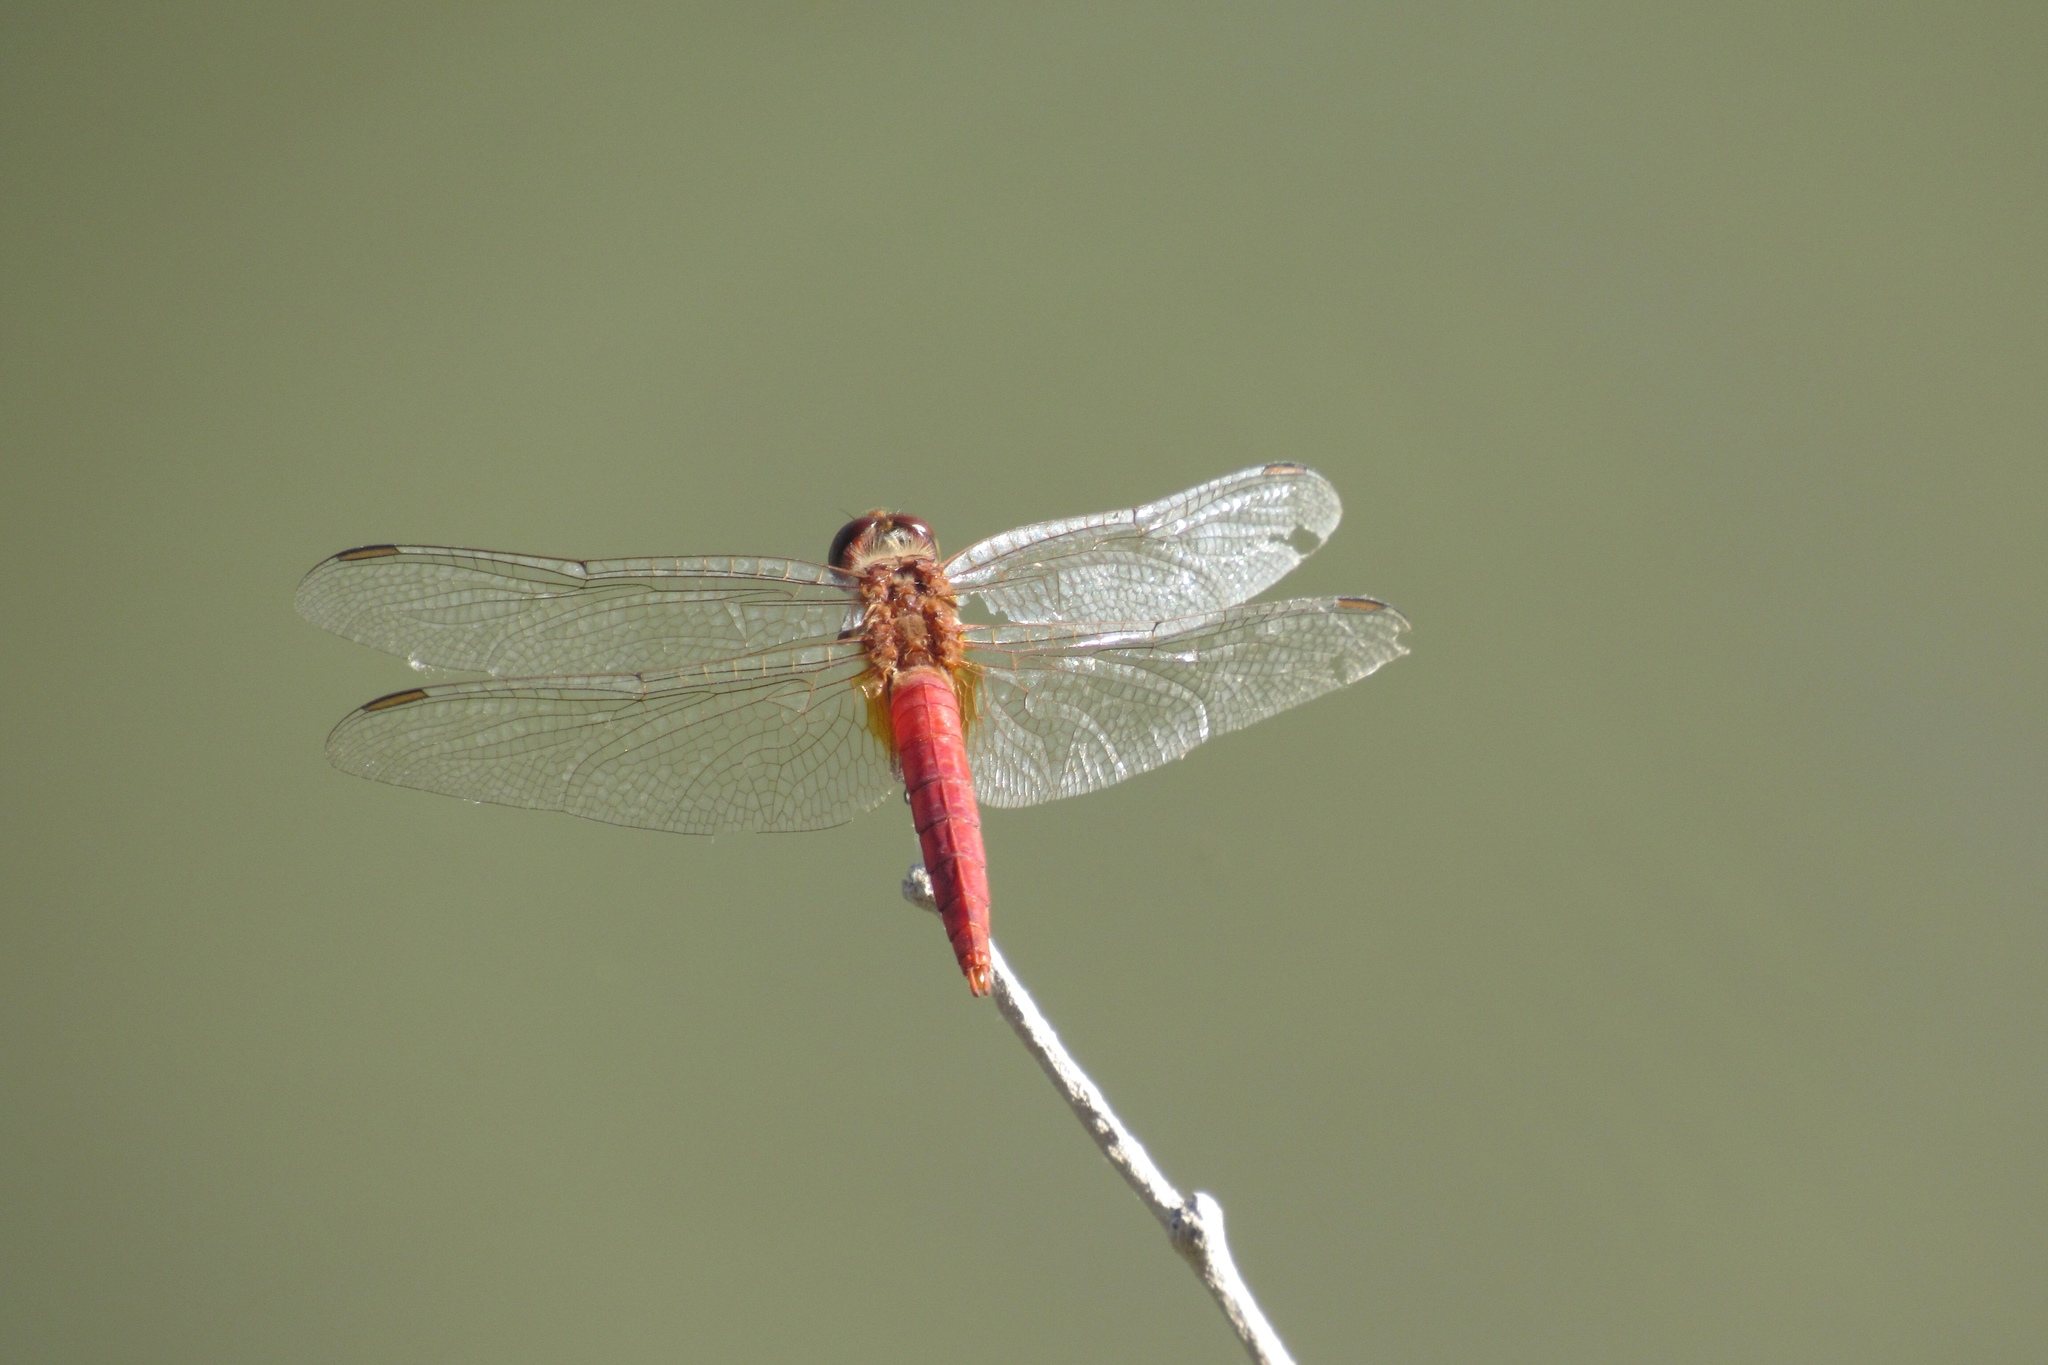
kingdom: Animalia
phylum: Arthropoda
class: Insecta
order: Odonata
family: Libellulidae
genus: Brachymesia
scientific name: Brachymesia furcata
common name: Red-taled pennant
